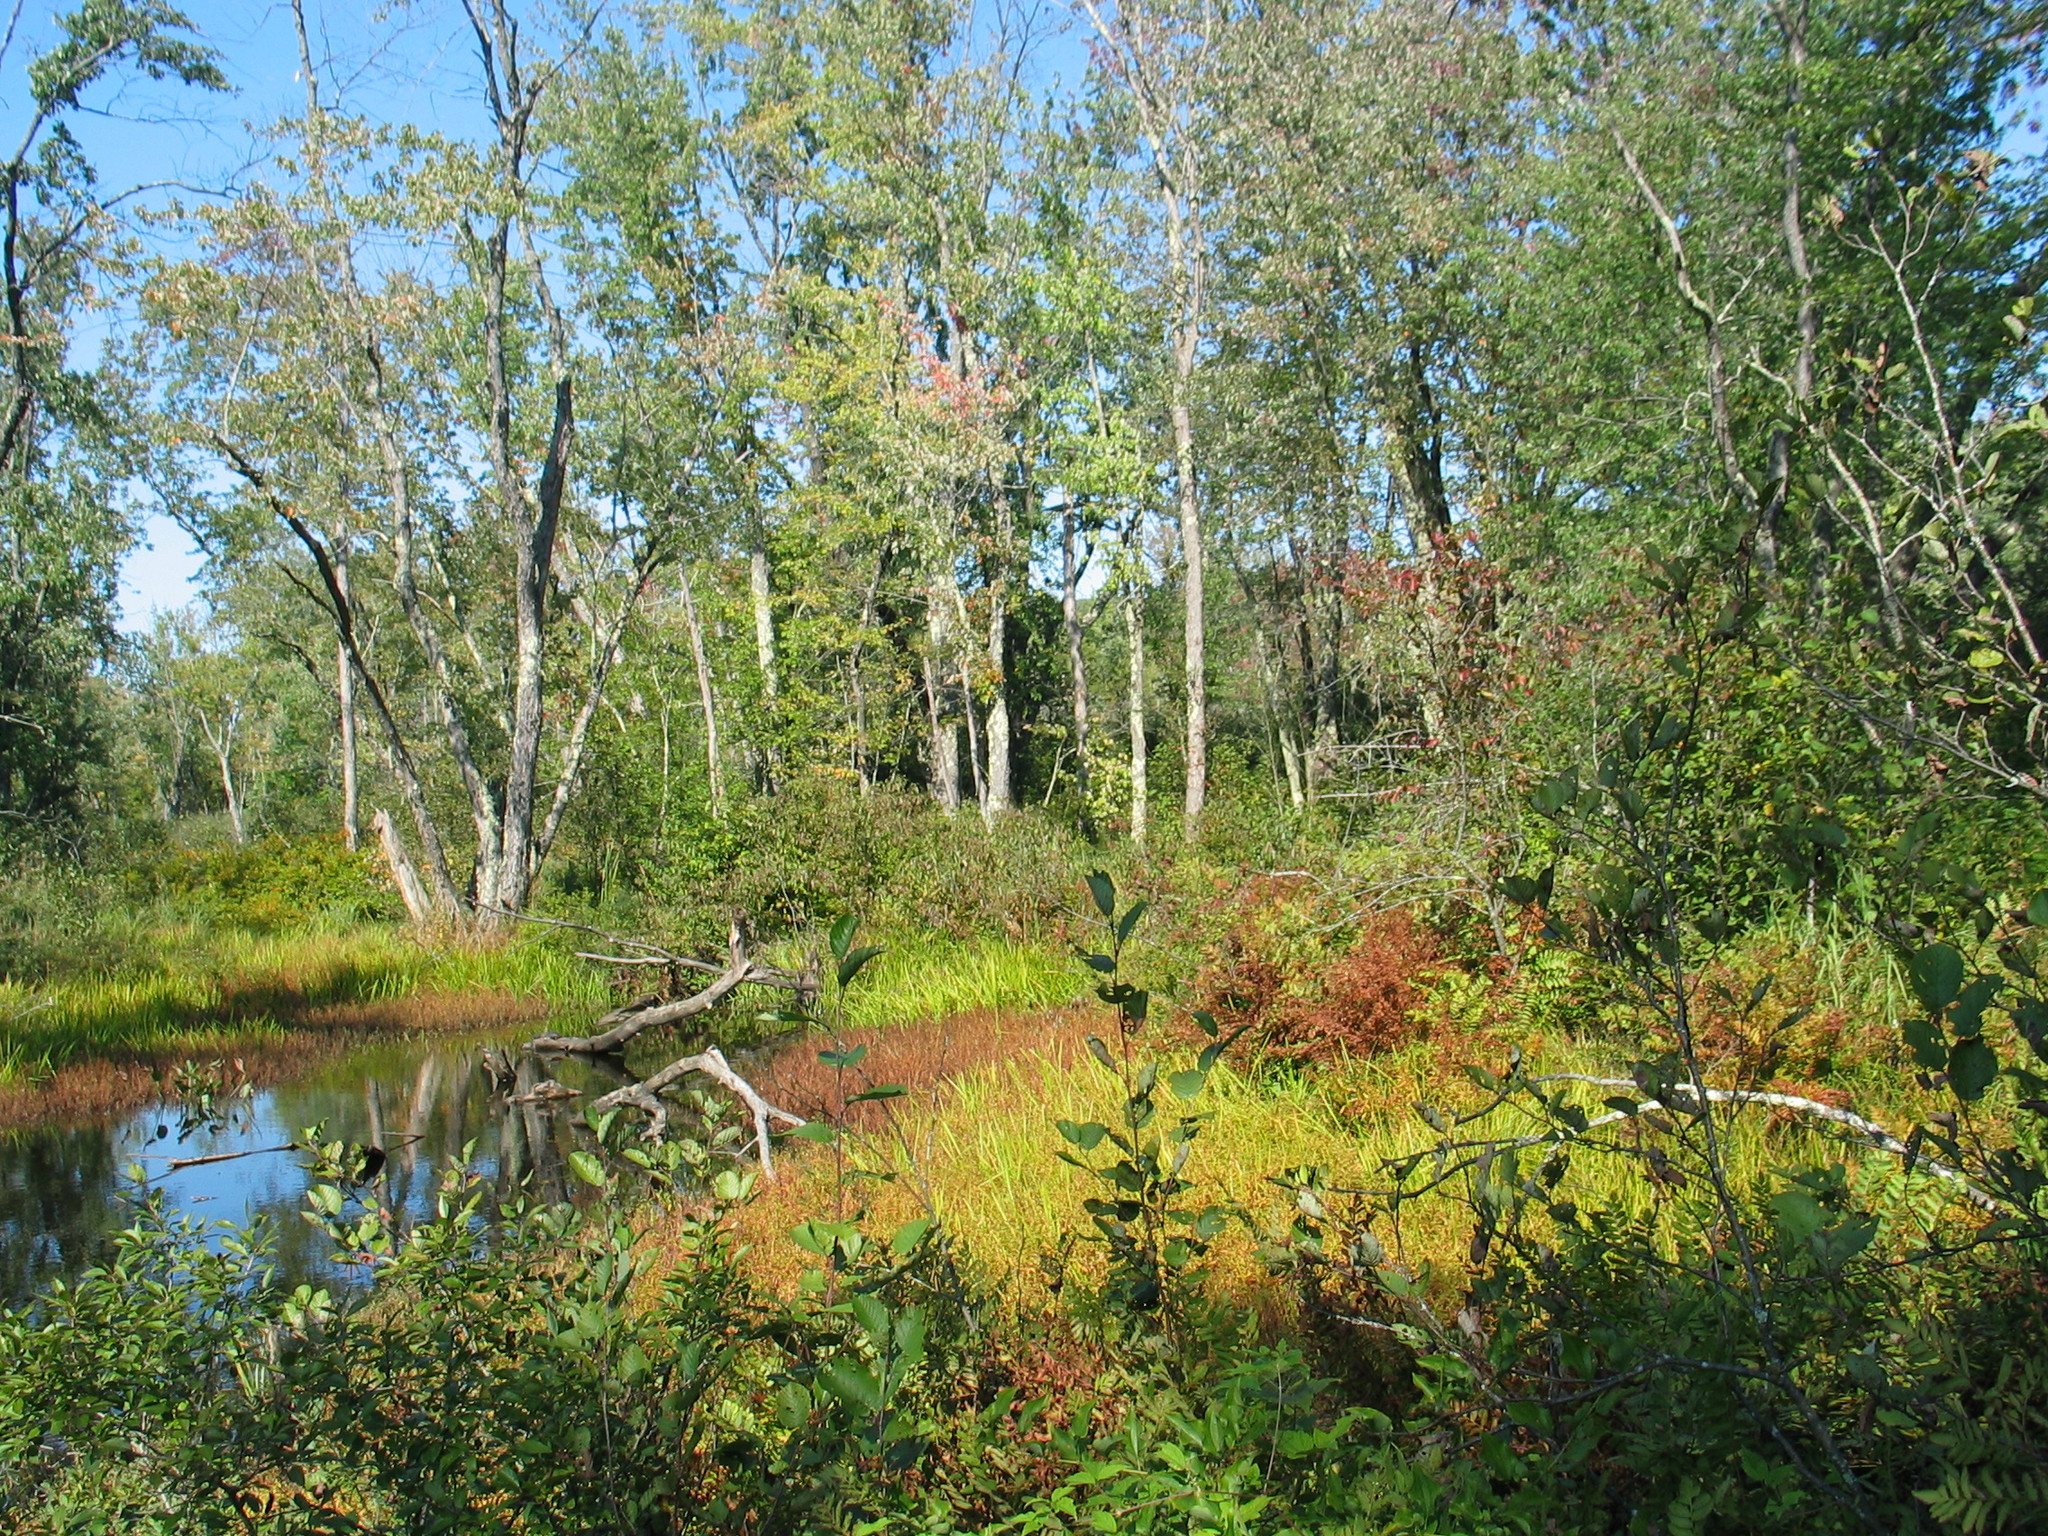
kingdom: Plantae
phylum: Tracheophyta
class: Magnoliopsida
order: Sapindales
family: Sapindaceae
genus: Acer
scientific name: Acer saccharinum
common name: Silver maple
